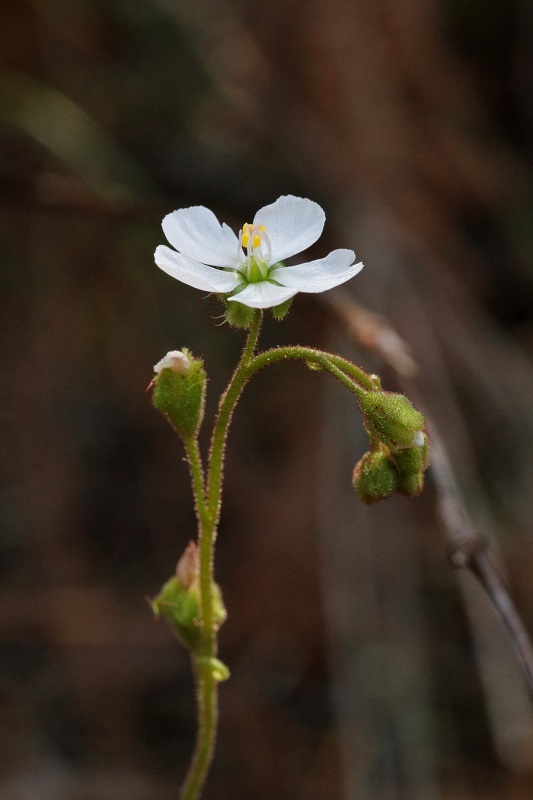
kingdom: Plantae
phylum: Tracheophyta
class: Magnoliopsida
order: Caryophyllales
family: Droseraceae
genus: Drosera
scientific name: Drosera natalensis
